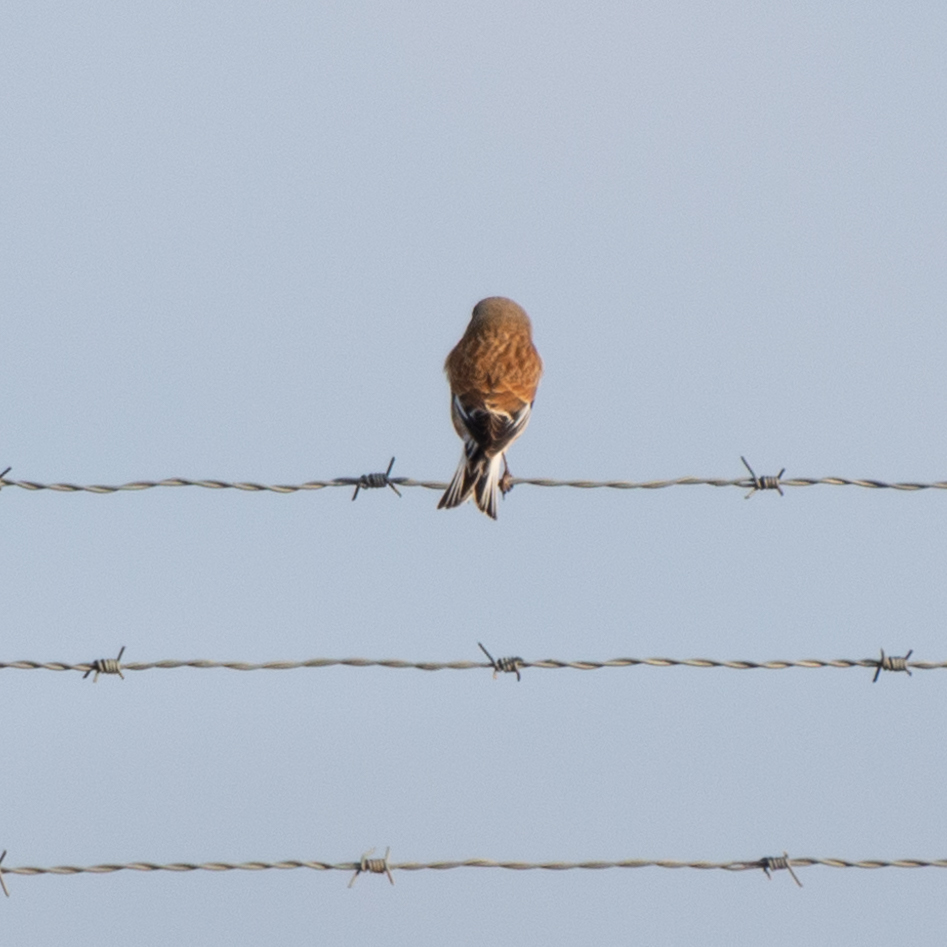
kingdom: Animalia
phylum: Chordata
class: Aves
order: Passeriformes
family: Fringillidae
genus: Linaria
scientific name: Linaria cannabina
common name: Common linnet
